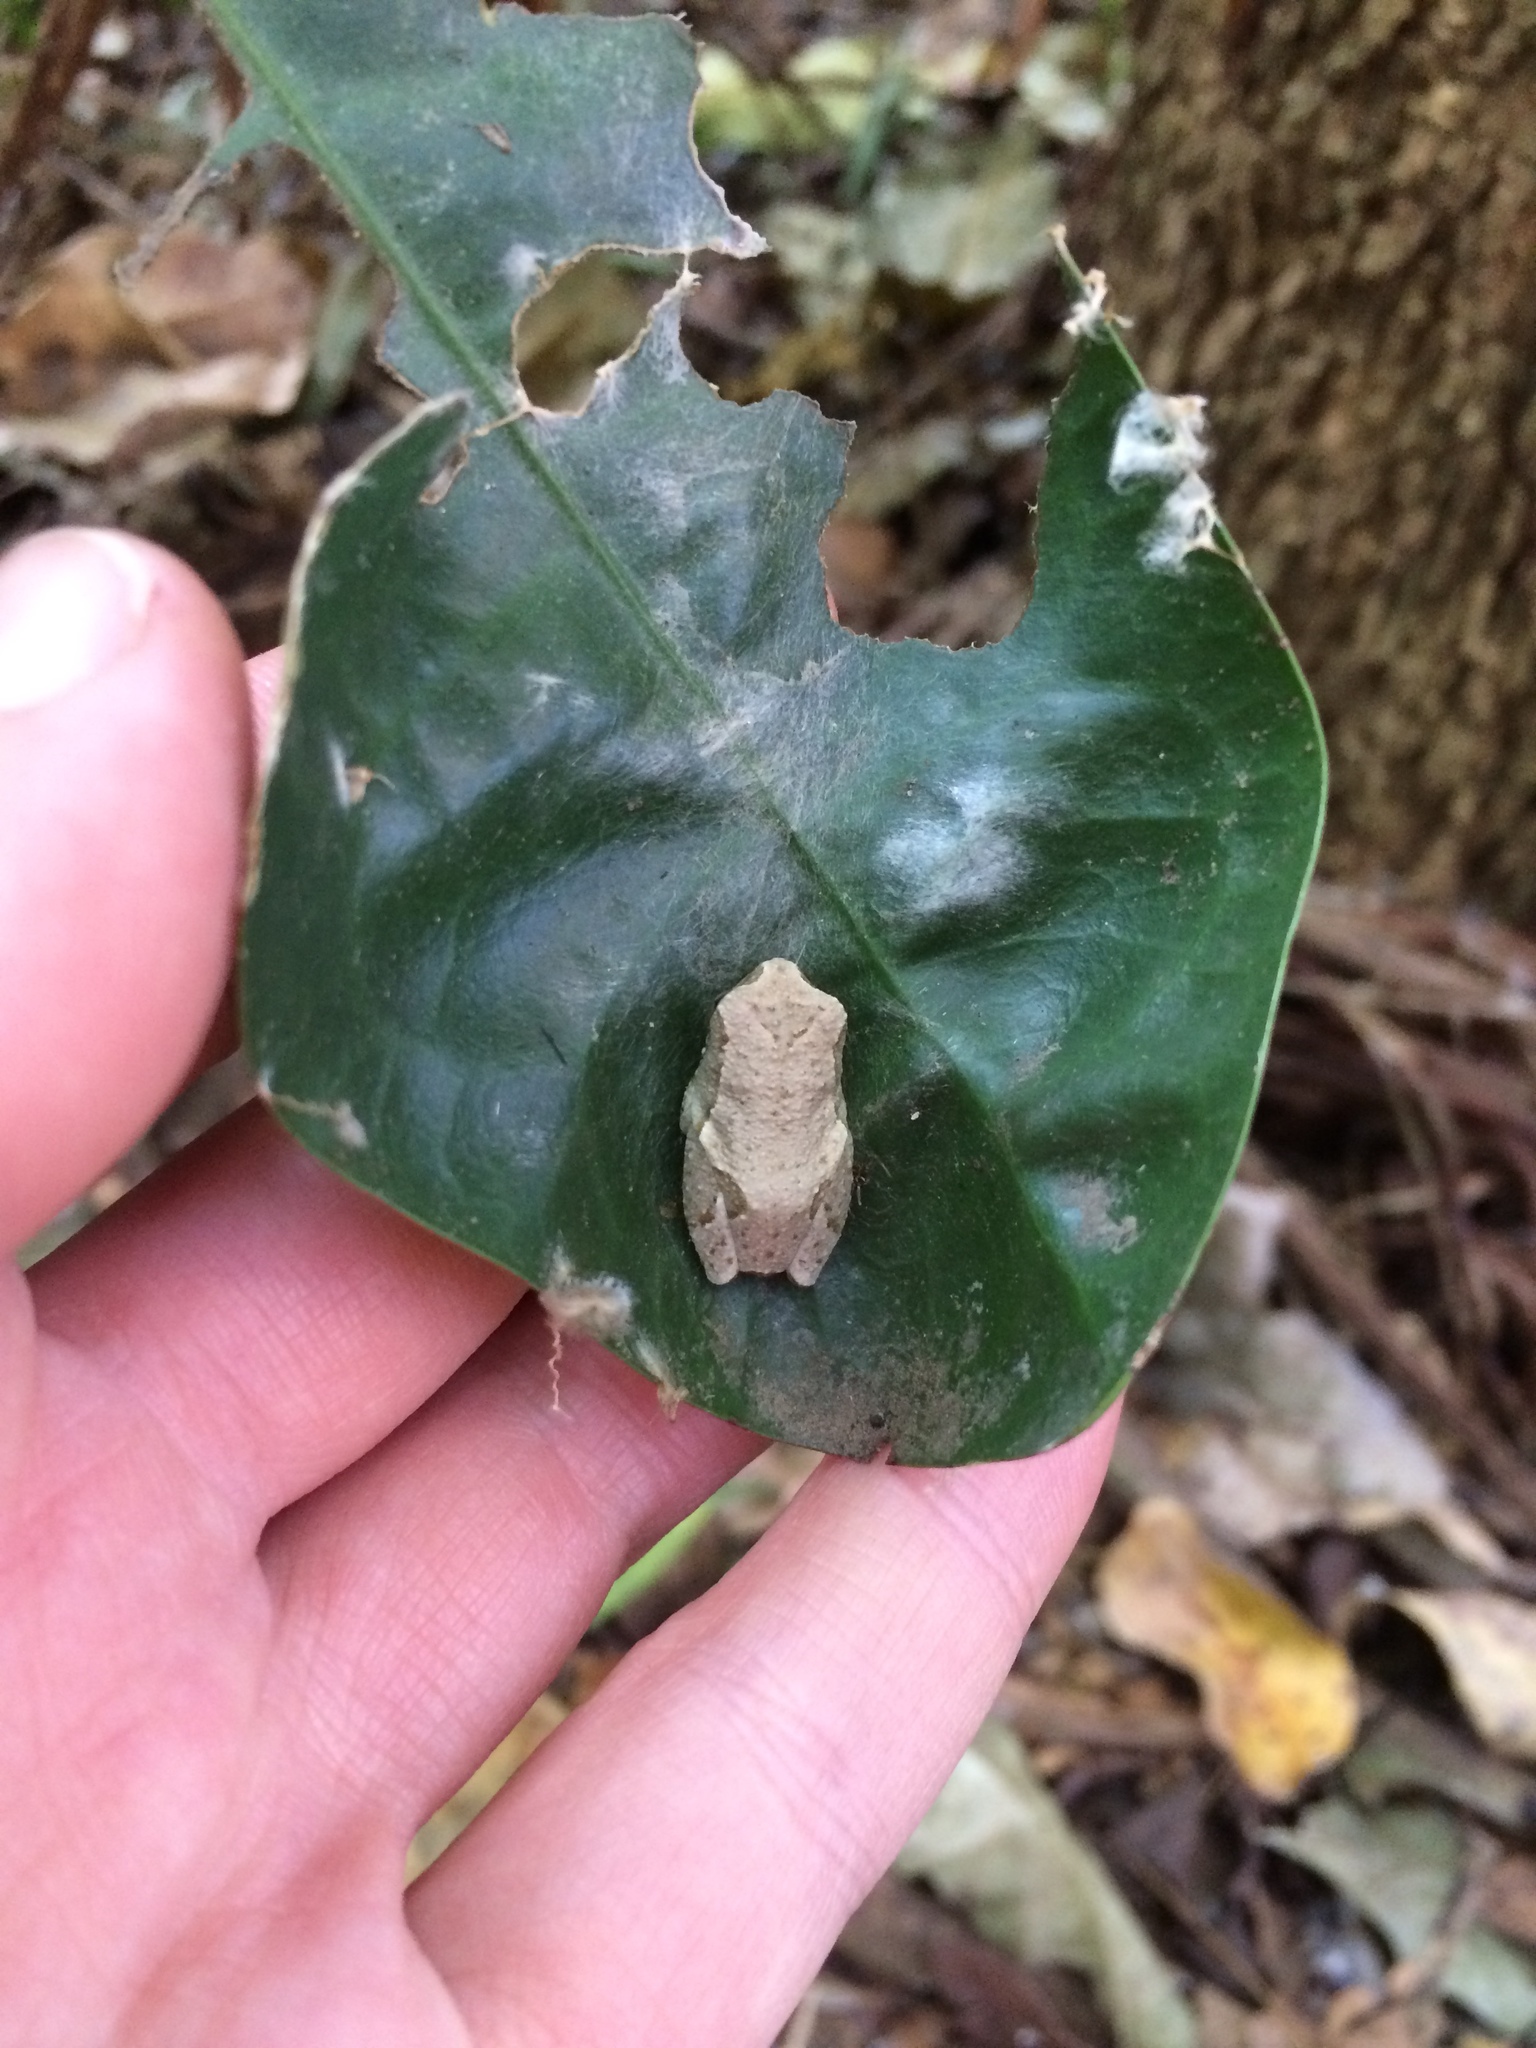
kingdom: Animalia
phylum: Chordata
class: Amphibia
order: Anura
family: Hyperoliidae
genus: Hyperolius
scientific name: Hyperolius marmoratus
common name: Painted reed frog
